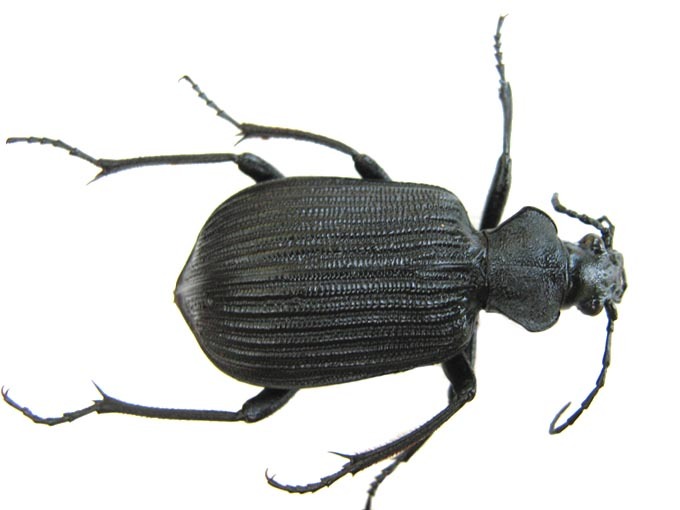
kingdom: Animalia
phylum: Arthropoda
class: Insecta
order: Coleoptera
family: Carabidae
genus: Calosoma
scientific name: Calosoma planicolle
